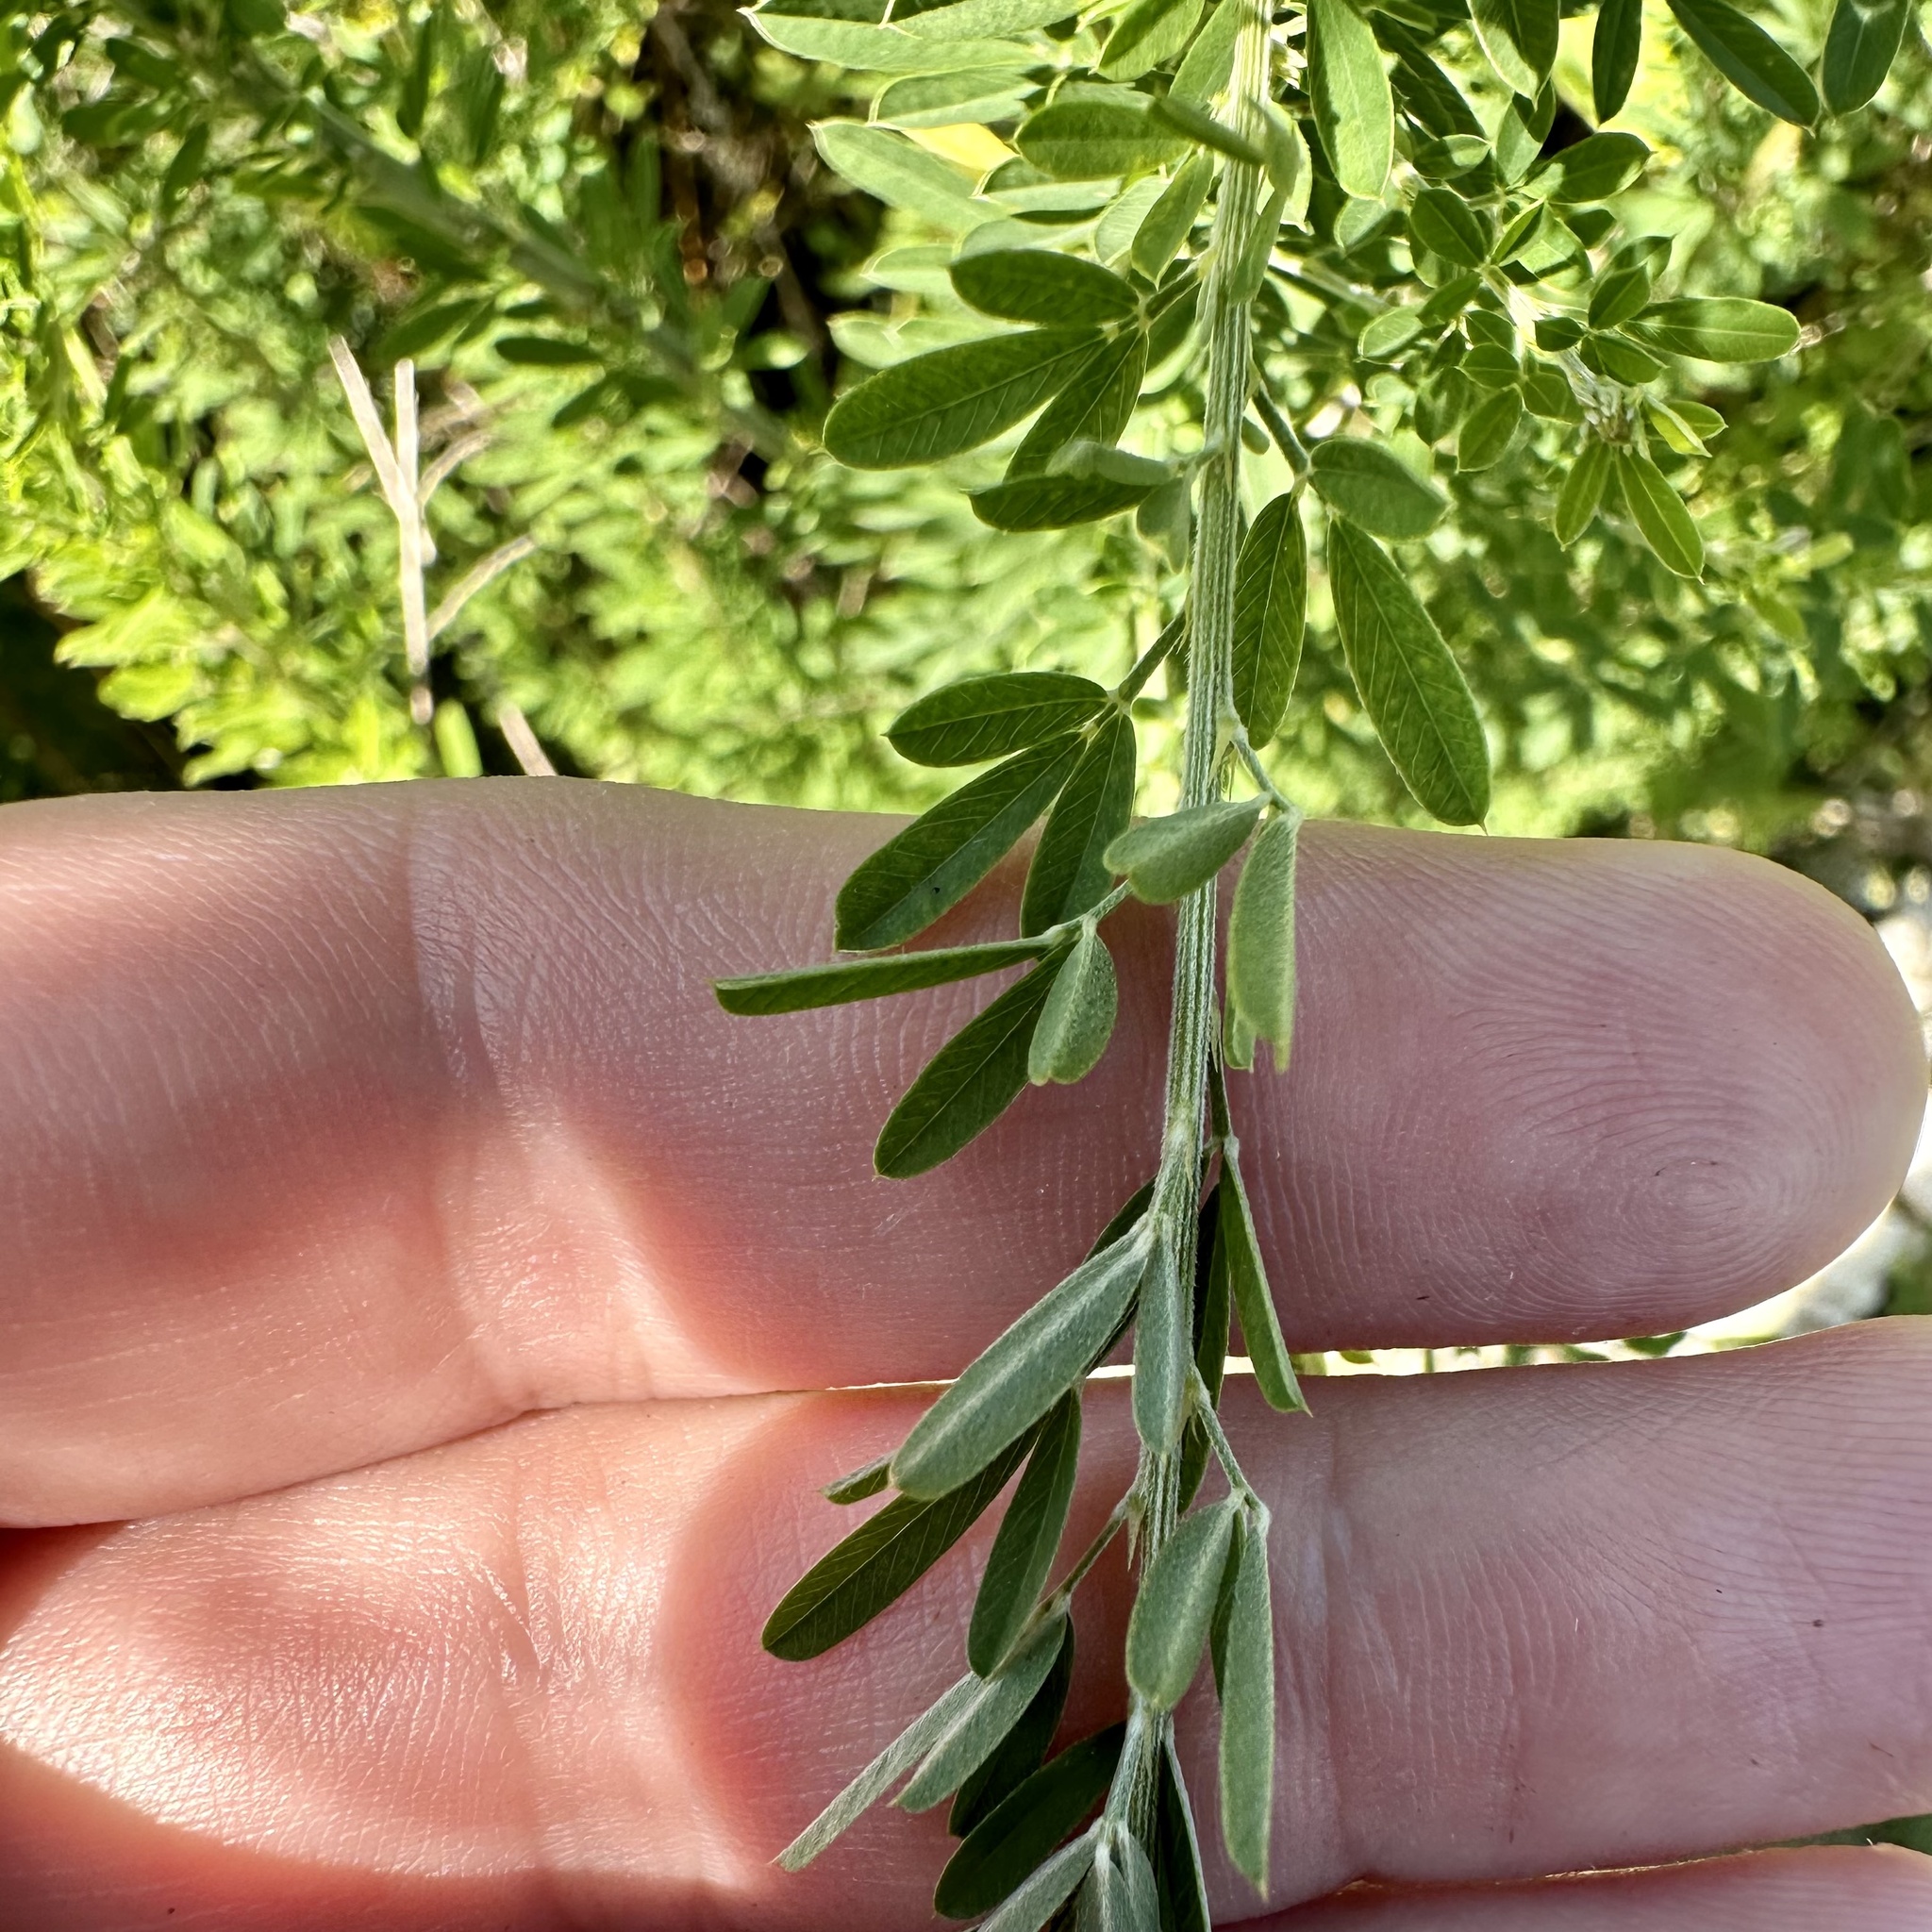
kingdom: Plantae
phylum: Tracheophyta
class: Magnoliopsida
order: Fabales
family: Fabaceae
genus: Lespedeza
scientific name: Lespedeza cuneata
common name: Chinese bush-clover
